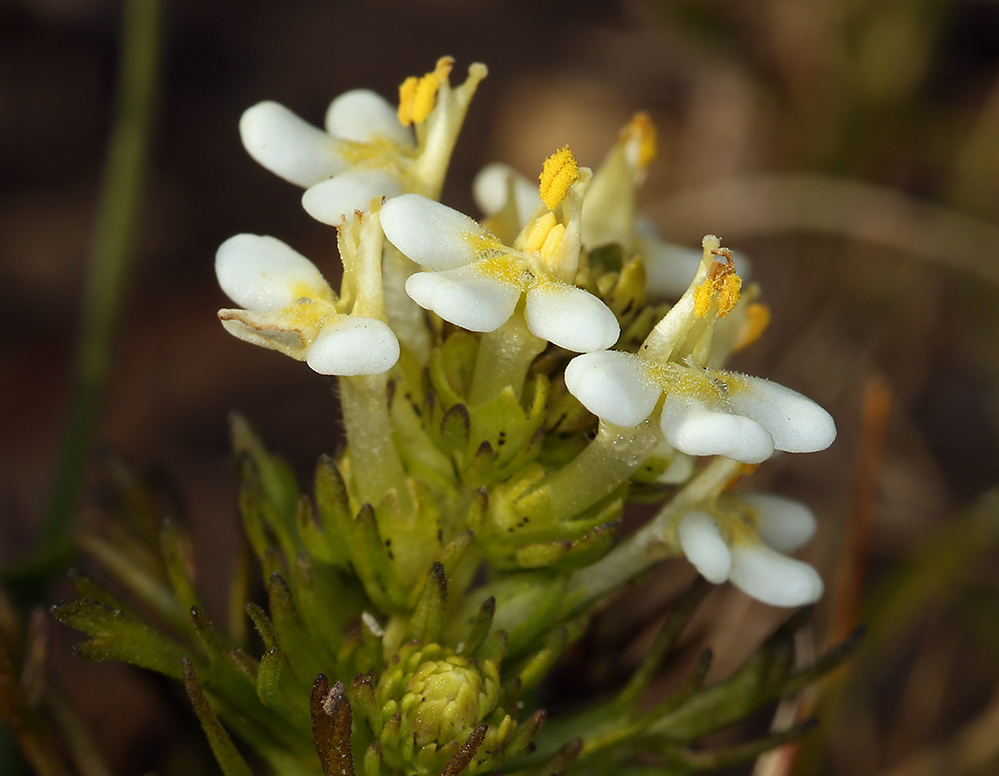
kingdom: Plantae
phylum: Tracheophyta
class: Magnoliopsida
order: Lamiales
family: Orobanchaceae
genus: Triphysaria
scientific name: Triphysaria floribunda
